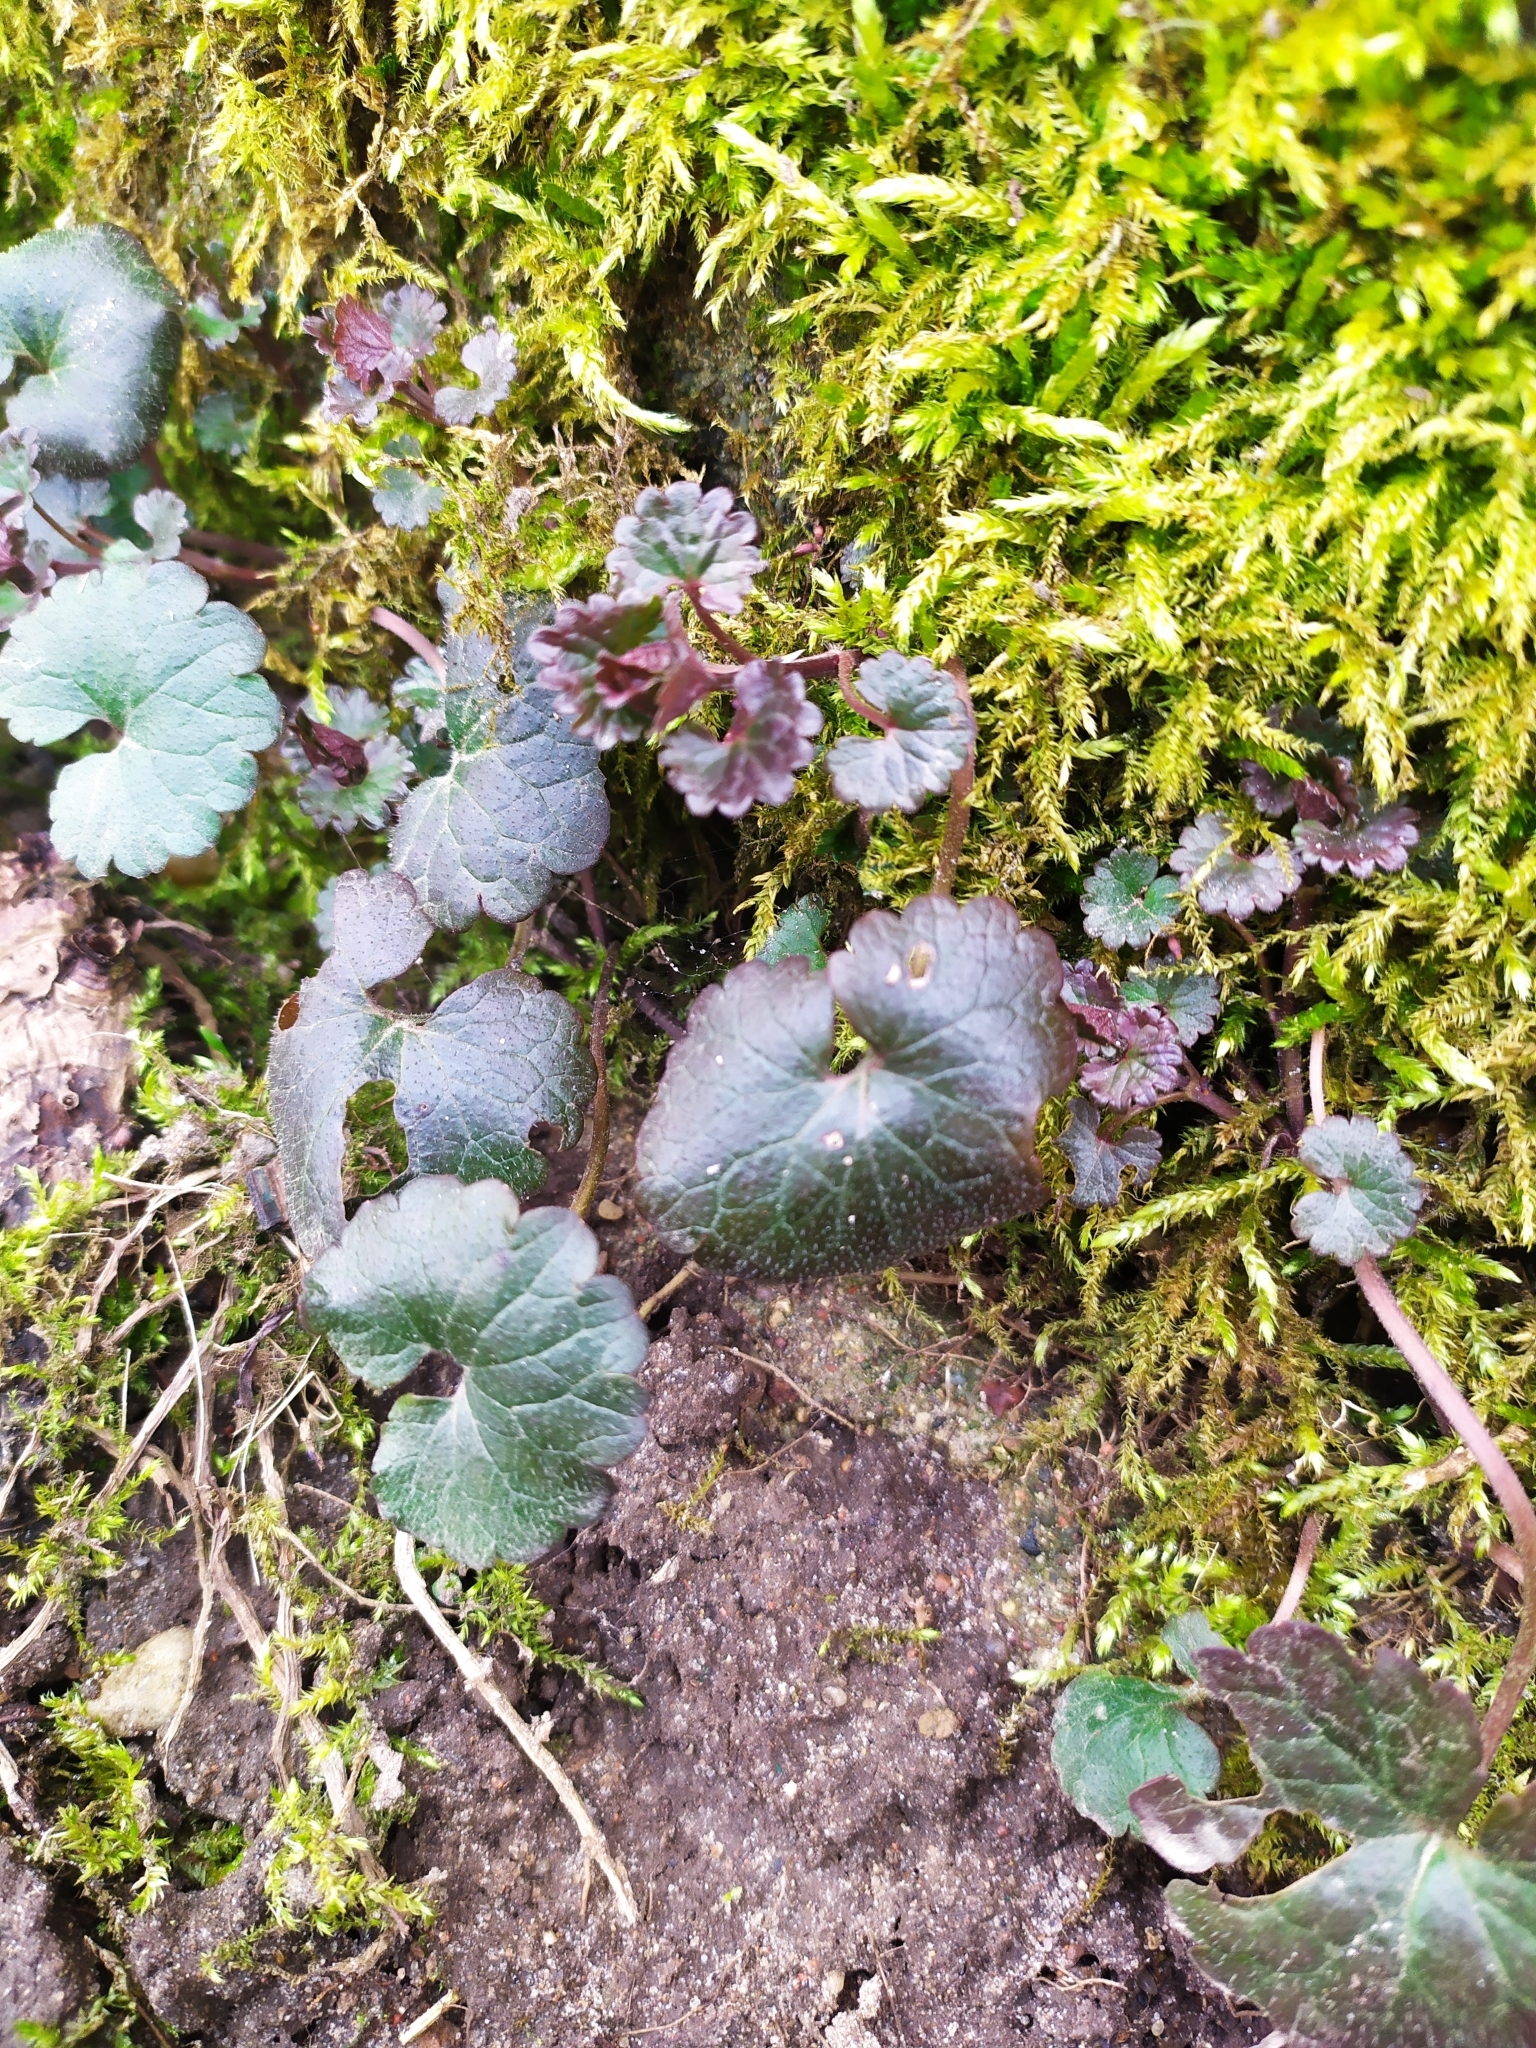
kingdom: Plantae
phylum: Tracheophyta
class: Magnoliopsida
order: Lamiales
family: Lamiaceae
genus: Glechoma
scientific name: Glechoma hederacea
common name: Ground ivy
